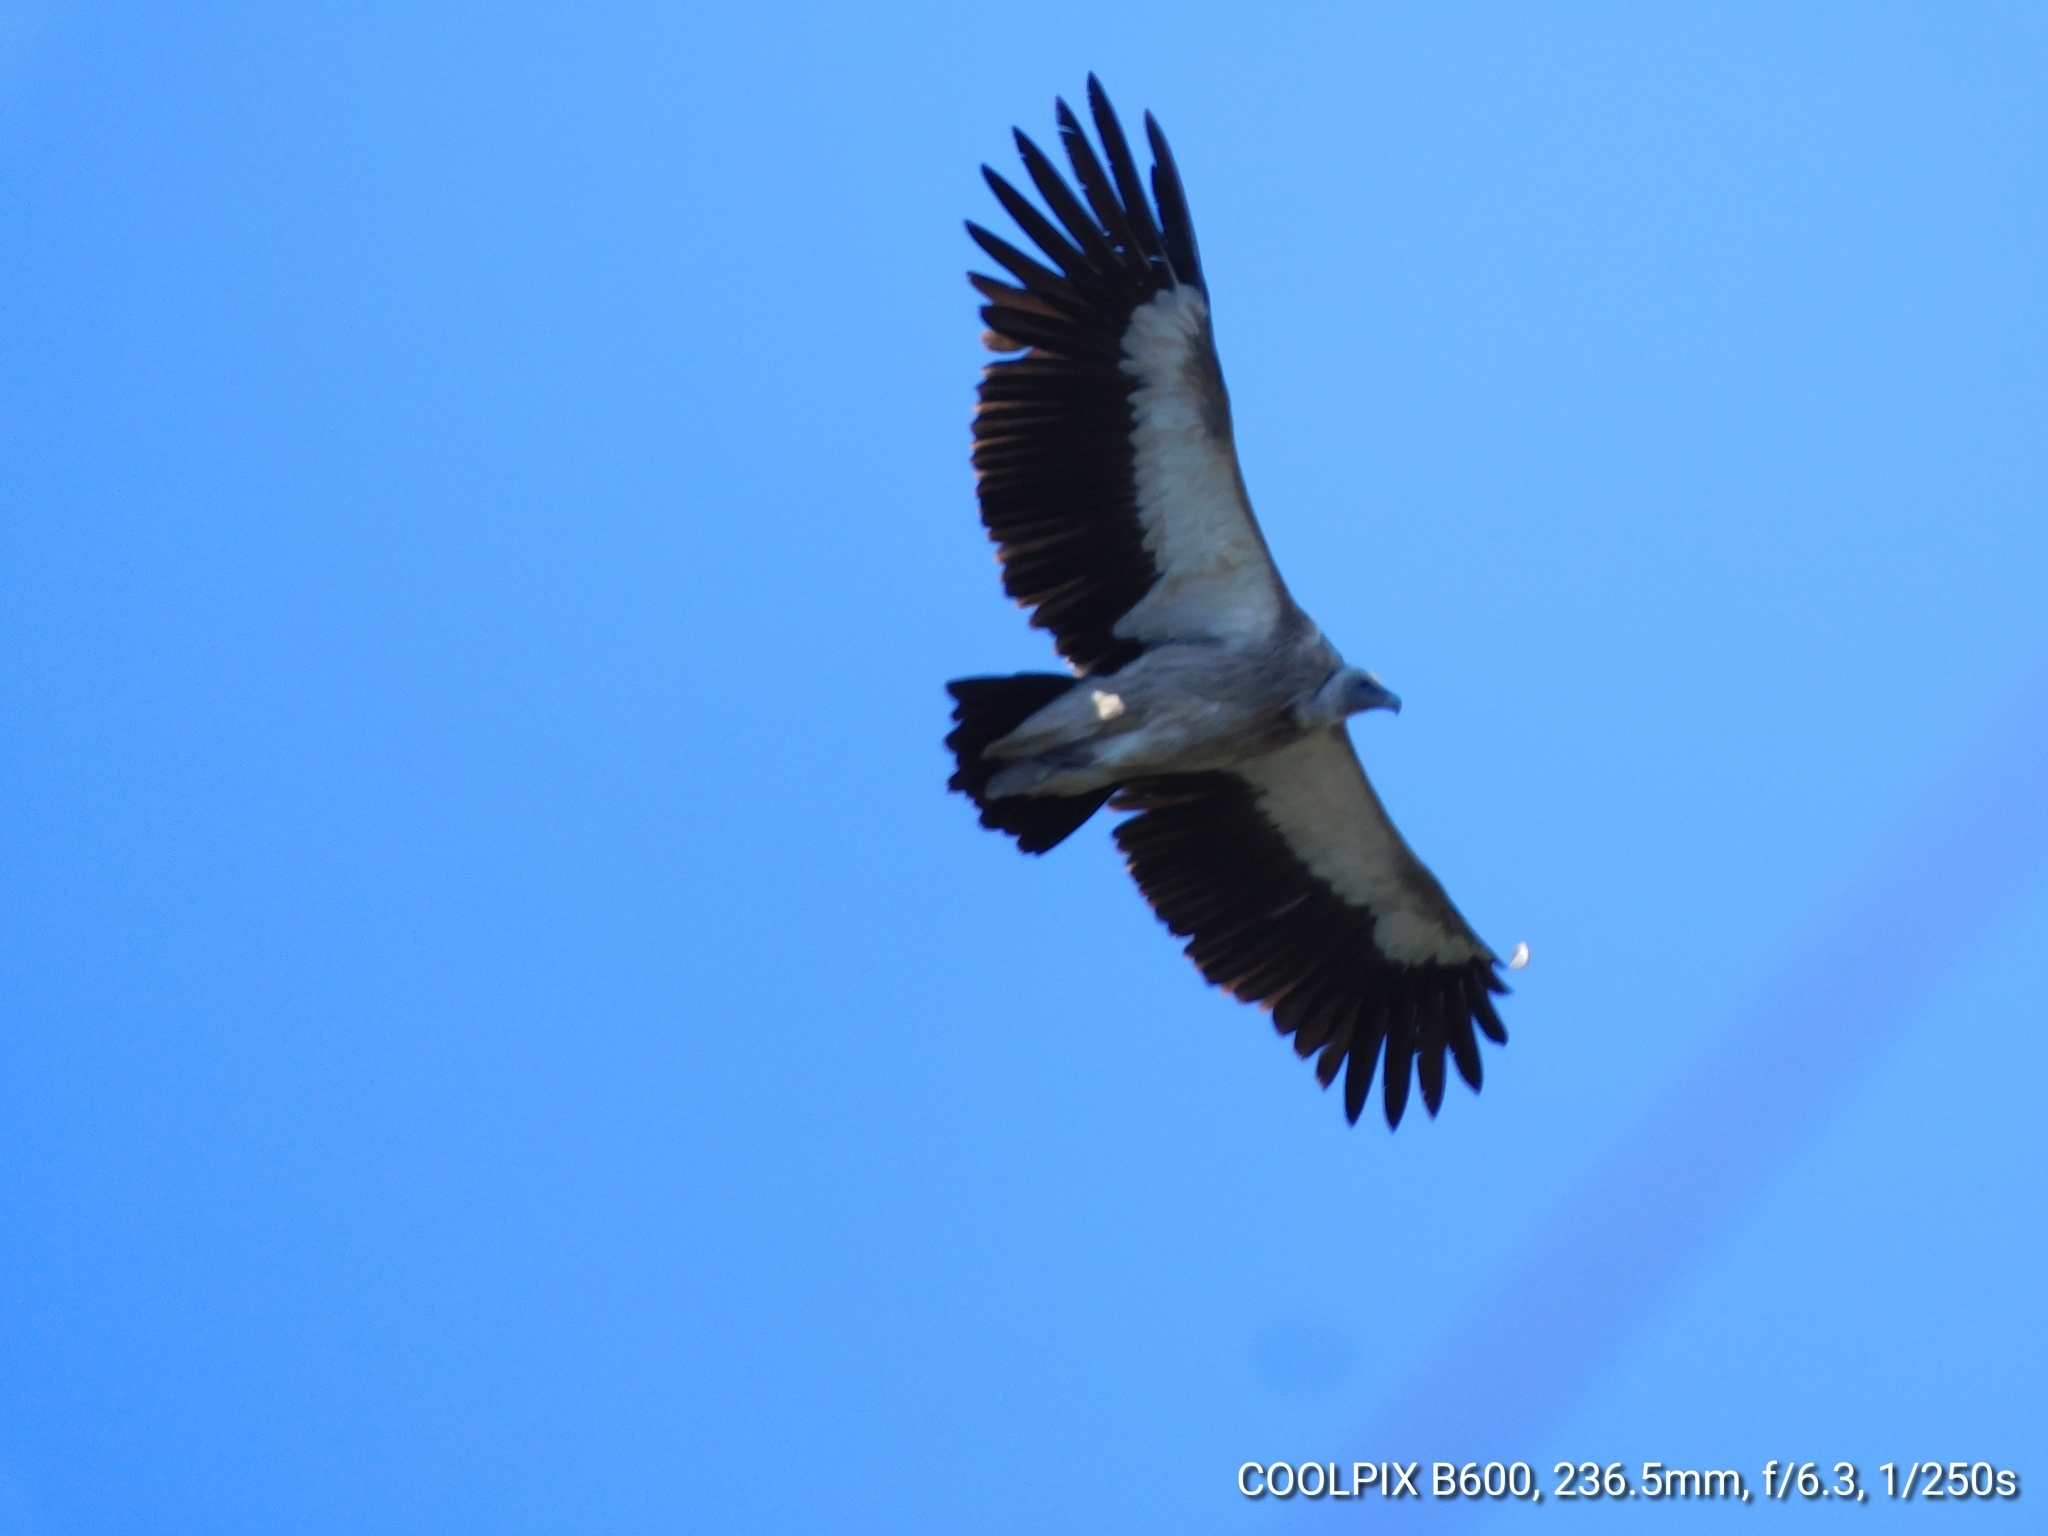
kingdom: Animalia
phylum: Chordata
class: Aves
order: Accipitriformes
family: Accipitridae
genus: Gyps
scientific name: Gyps himalayensis
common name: Himalayan griffon
